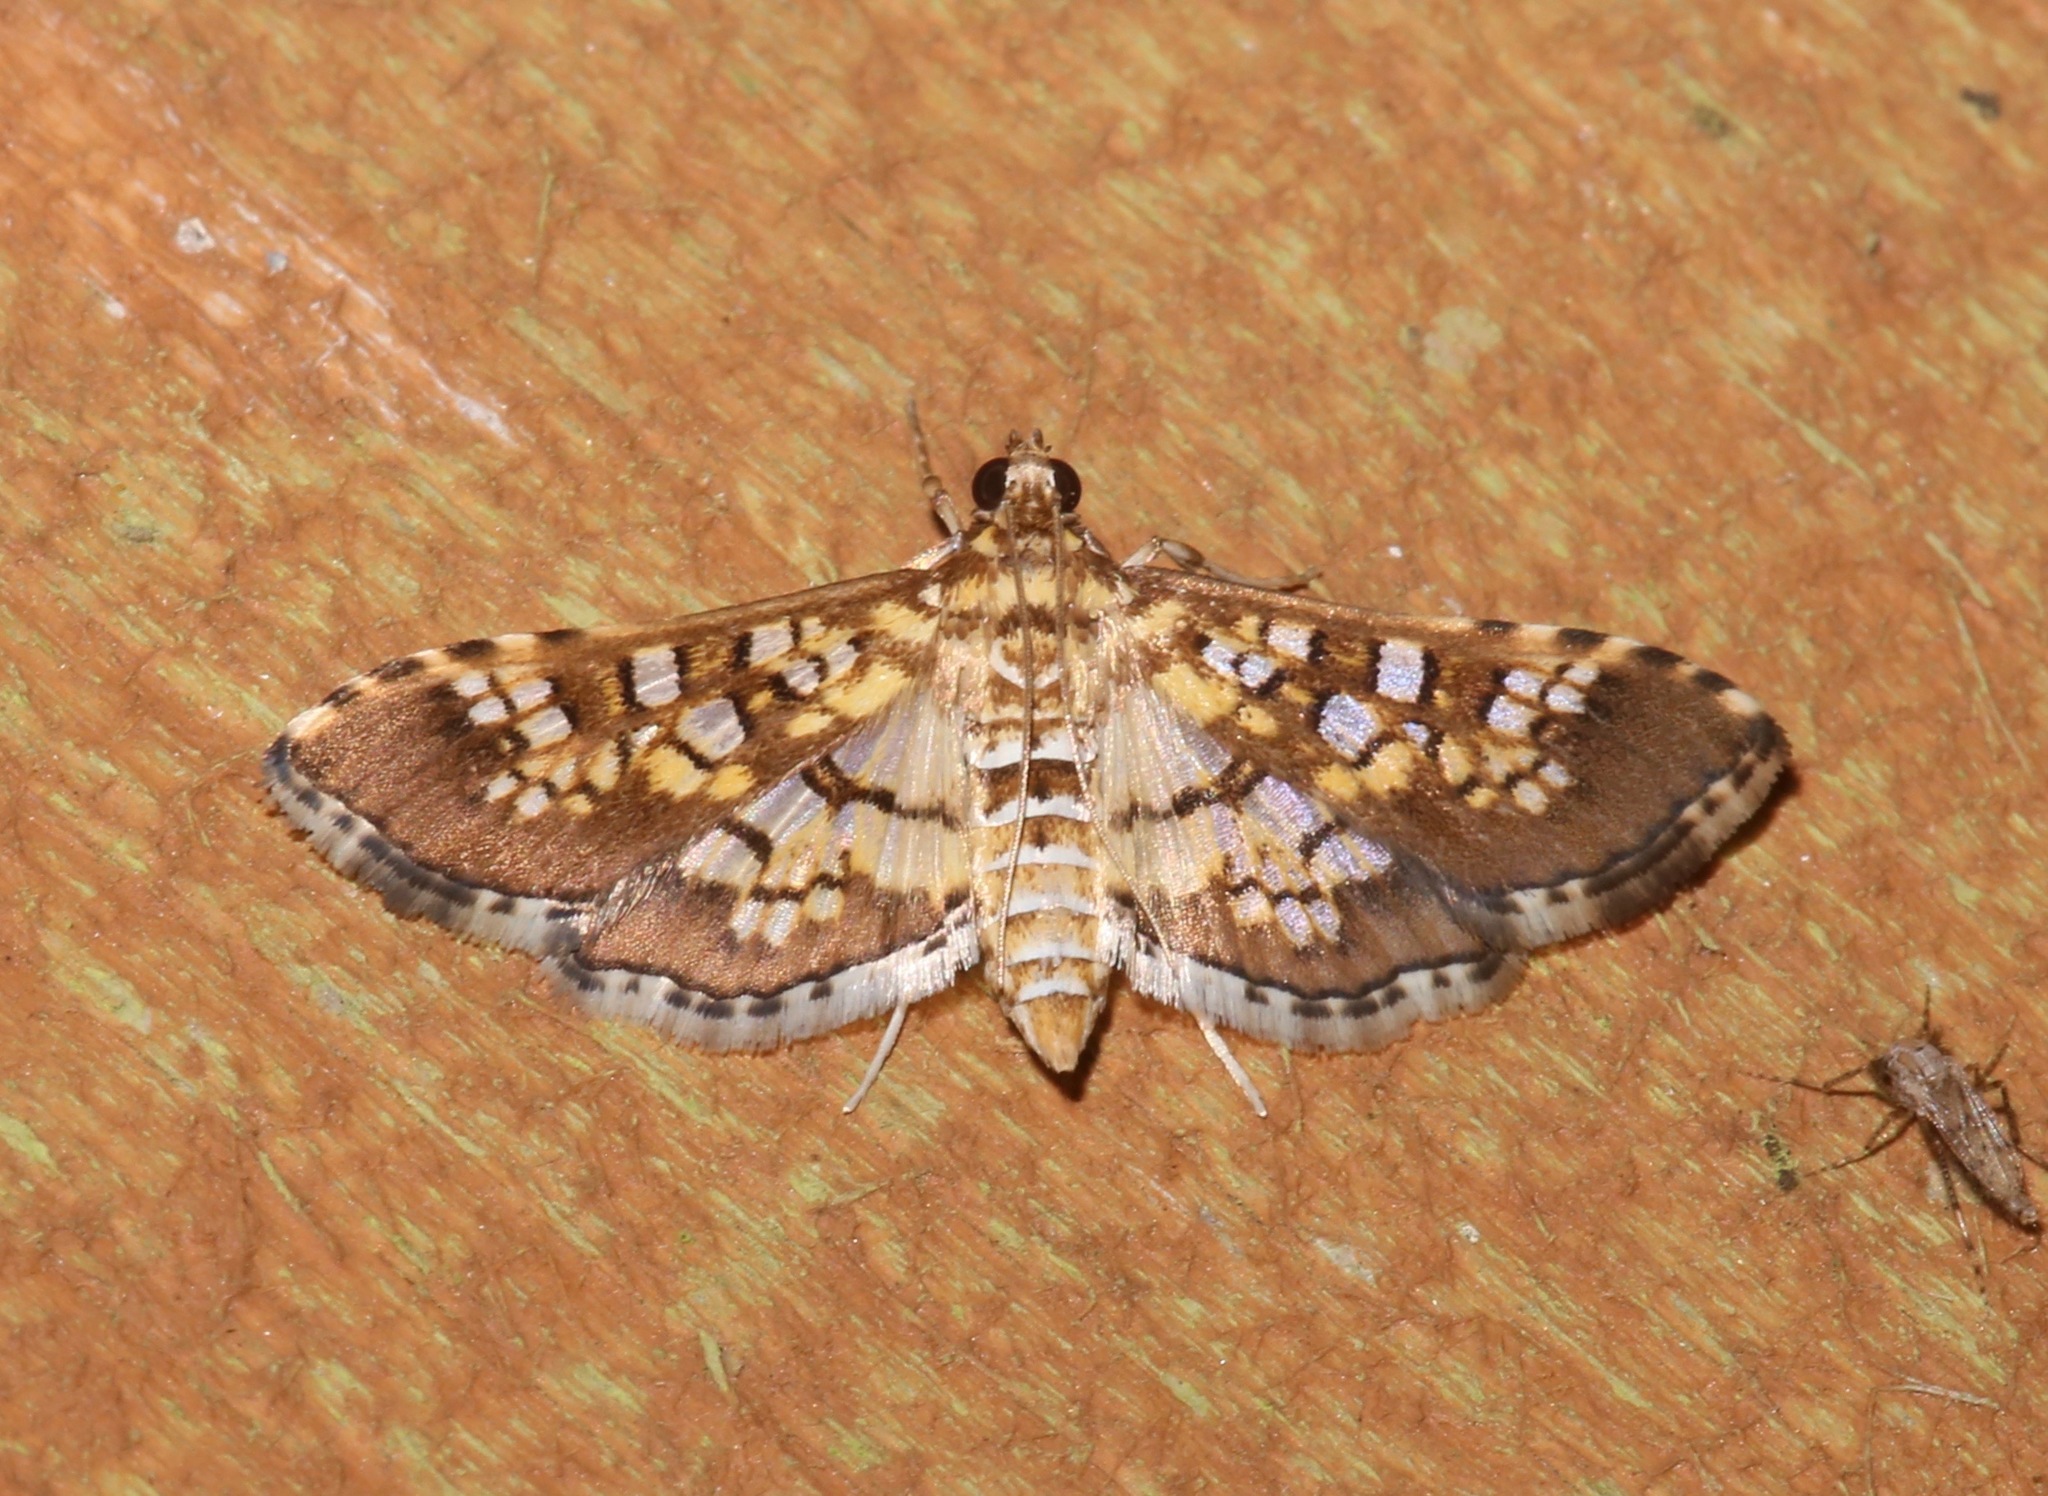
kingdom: Animalia
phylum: Arthropoda
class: Insecta
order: Lepidoptera
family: Crambidae
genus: Samea
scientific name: Samea ecclesialis
